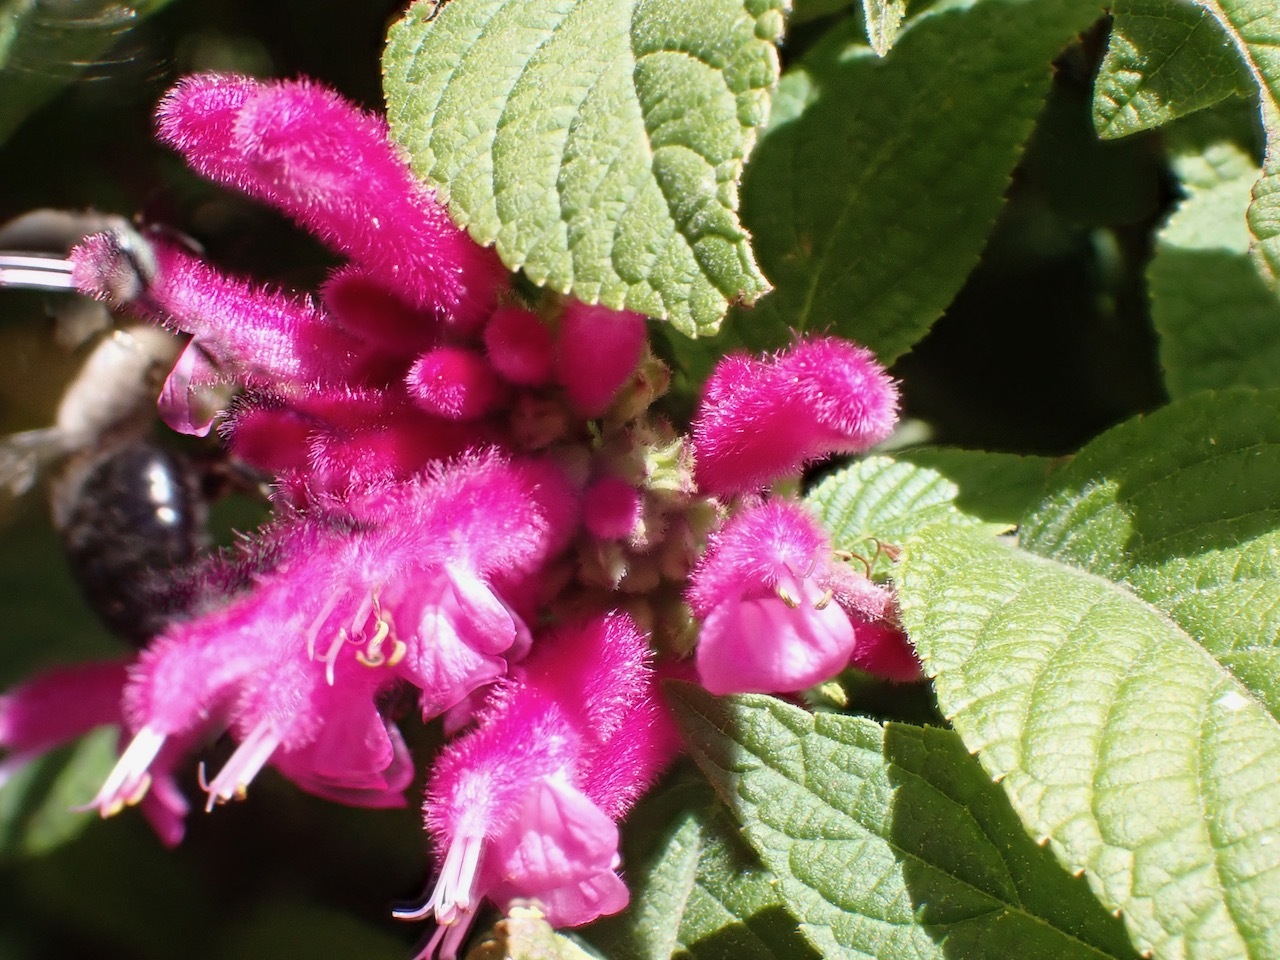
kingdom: Animalia
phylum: Arthropoda
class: Insecta
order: Hymenoptera
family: Apidae
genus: Xylocopa
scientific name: Xylocopa tabaniformis
